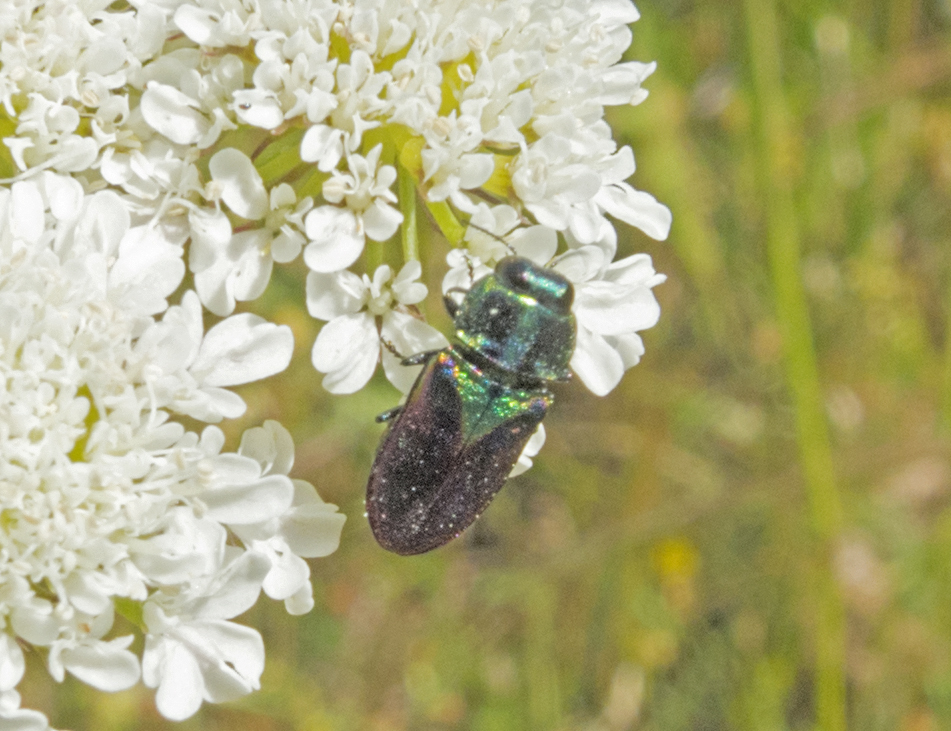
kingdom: Animalia
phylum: Arthropoda
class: Insecta
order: Coleoptera
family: Buprestidae
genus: Anthaxia
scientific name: Anthaxia bicolor
